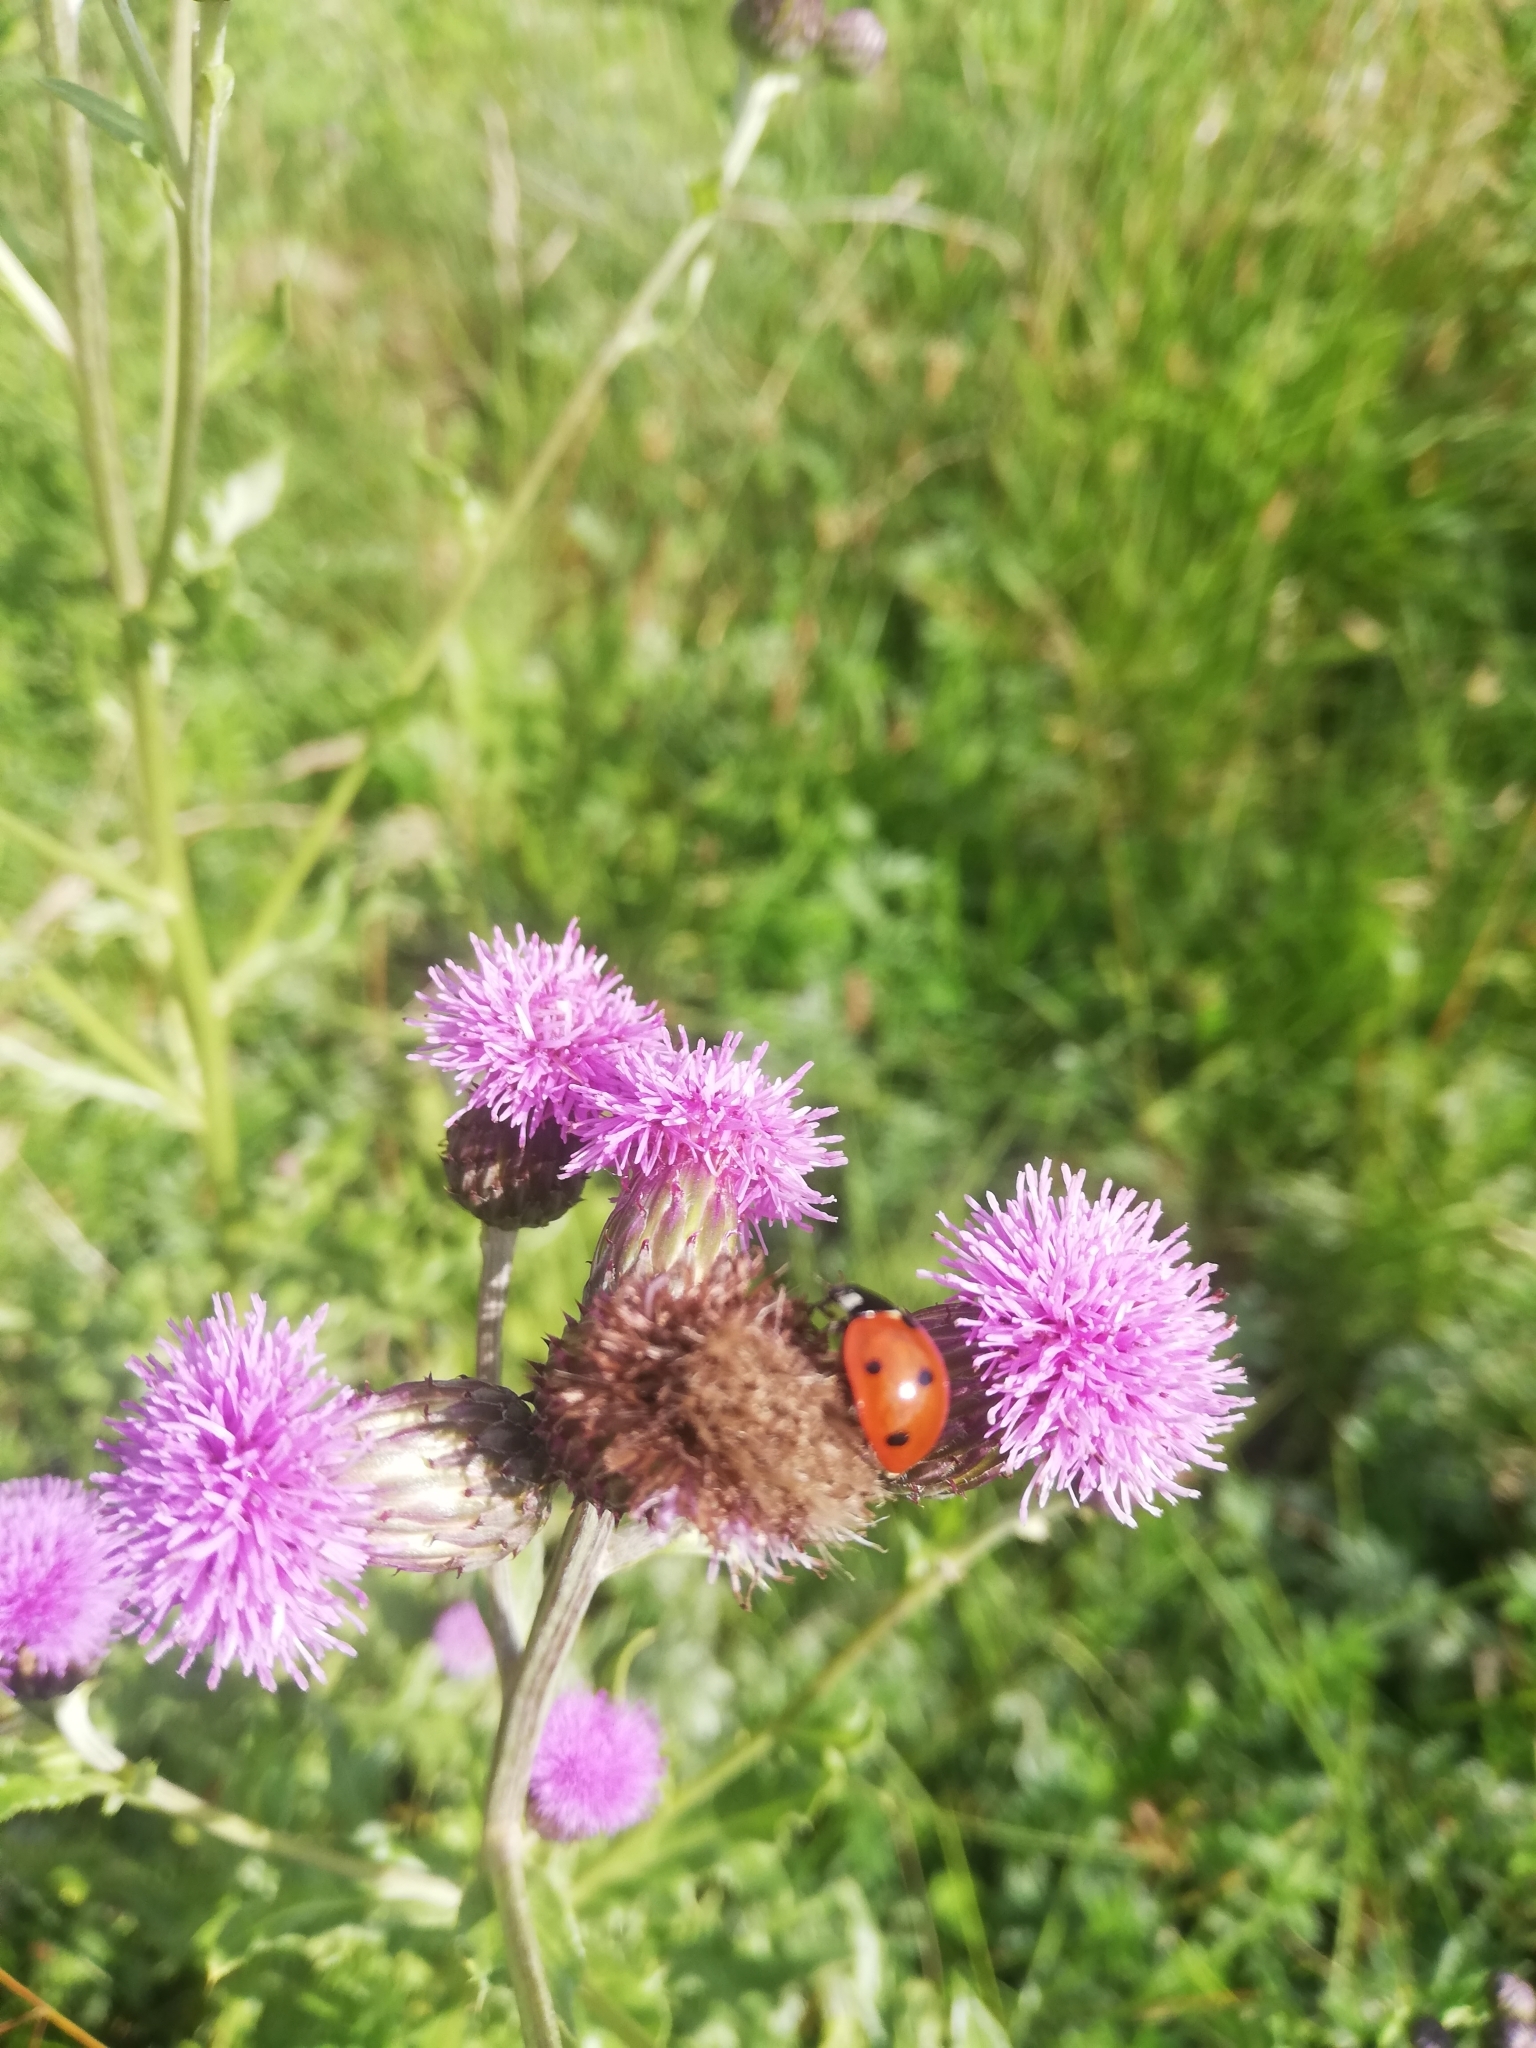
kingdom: Animalia
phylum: Arthropoda
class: Insecta
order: Coleoptera
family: Coccinellidae
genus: Coccinella
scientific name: Coccinella septempunctata
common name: Sevenspotted lady beetle
